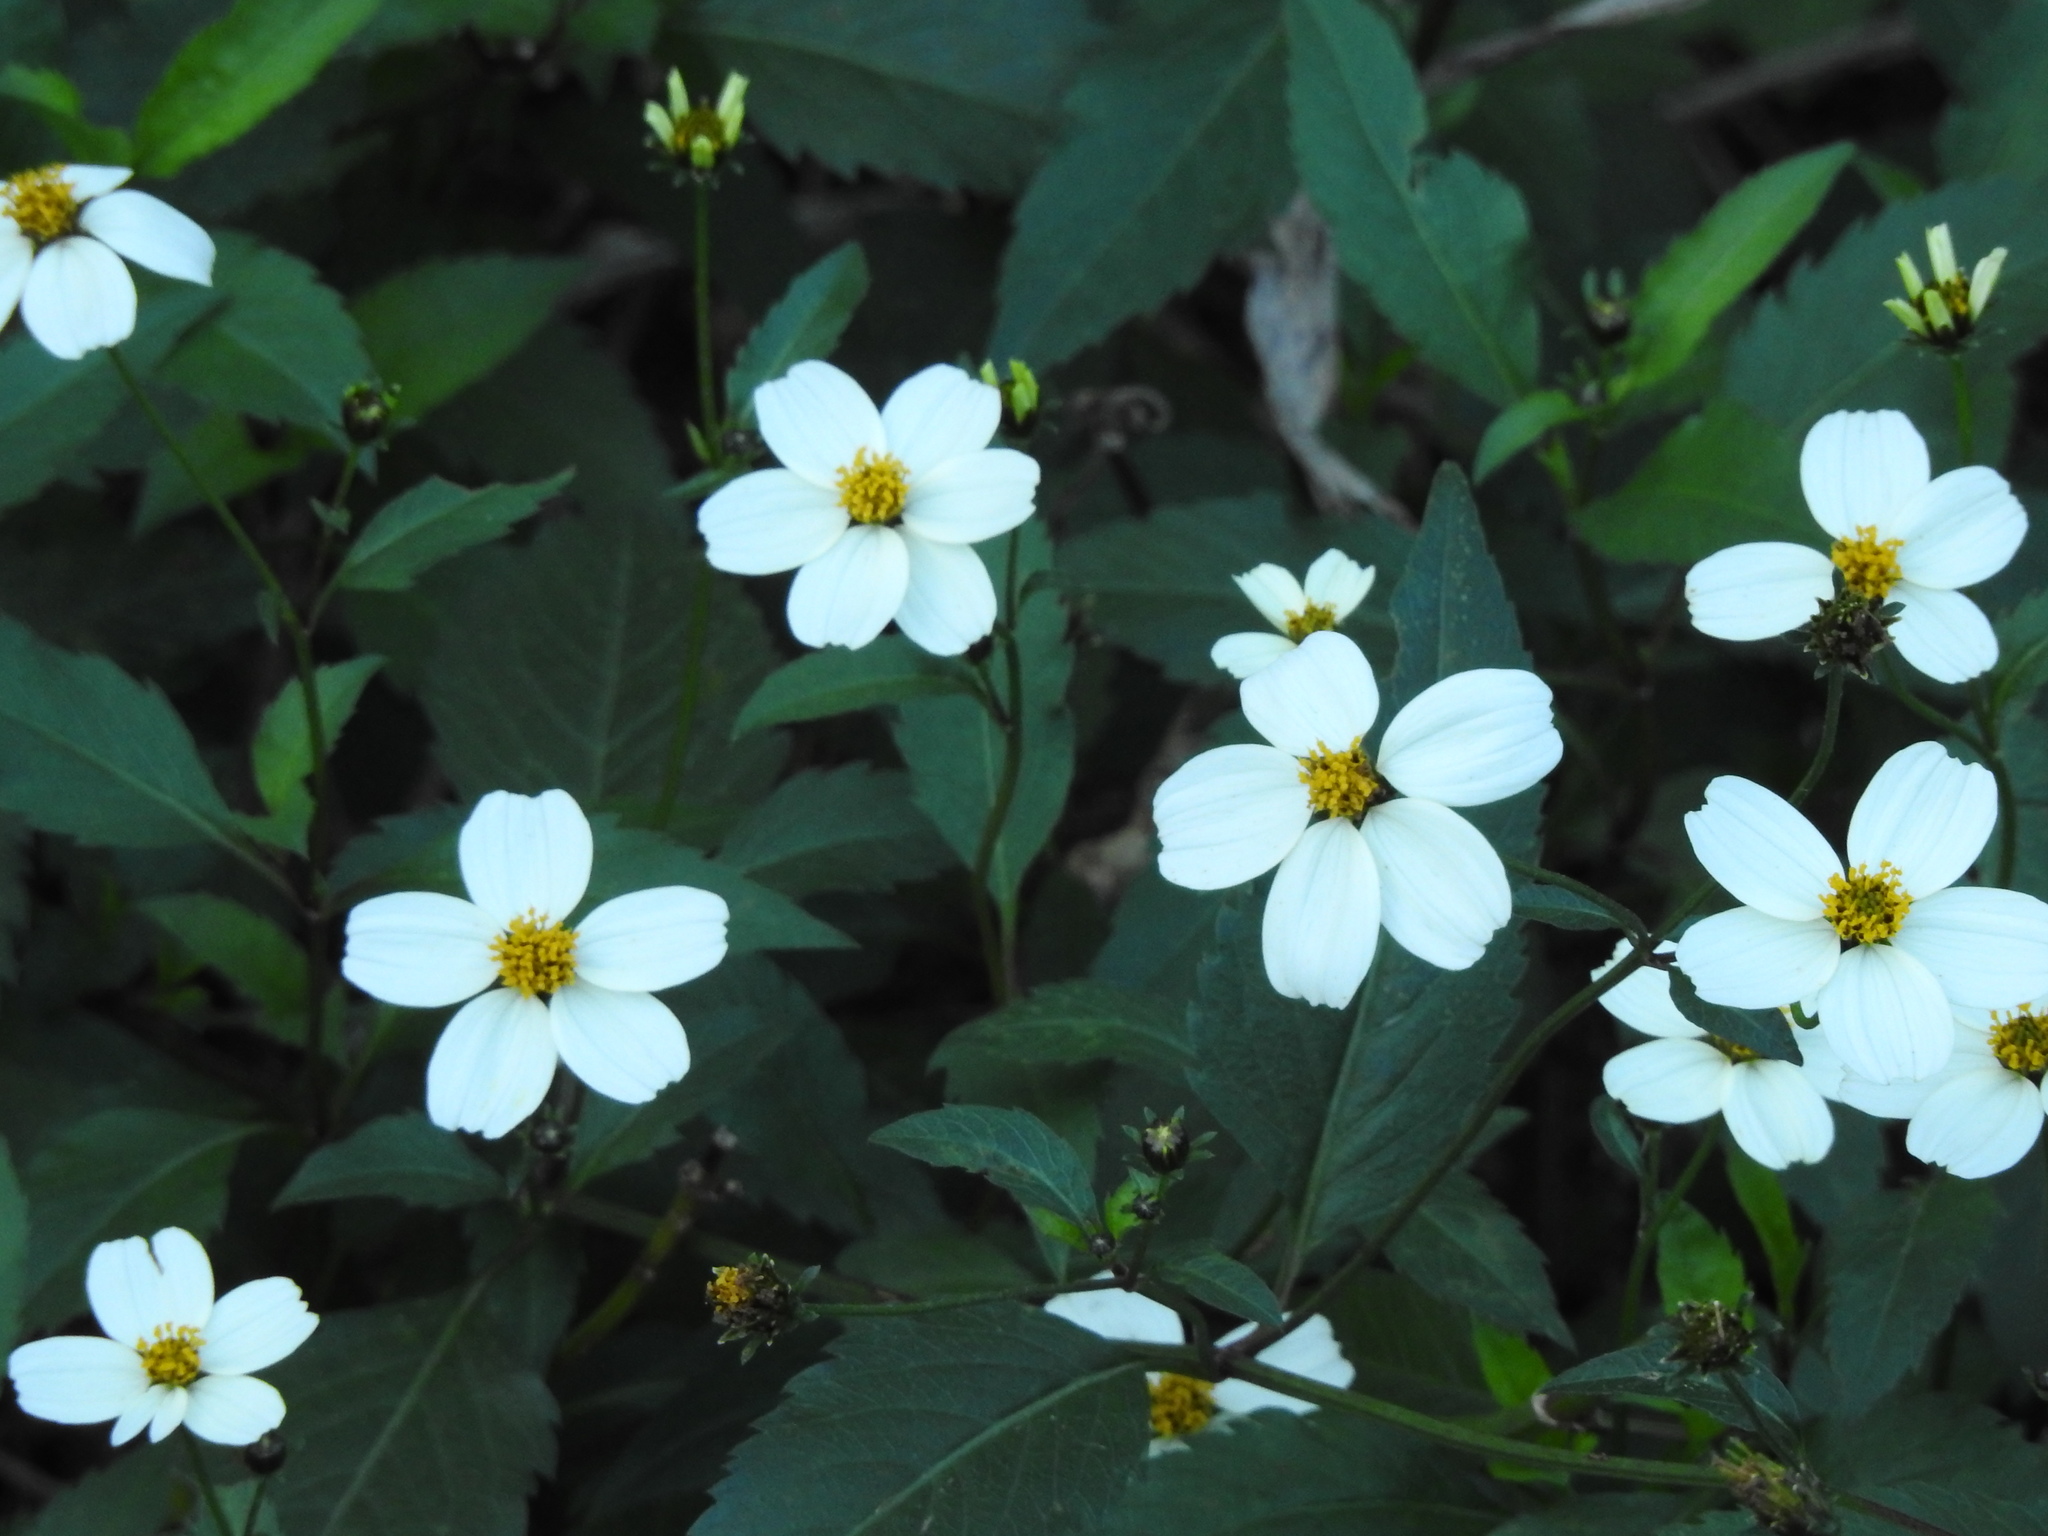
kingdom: Plantae
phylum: Tracheophyta
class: Magnoliopsida
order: Asterales
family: Asteraceae
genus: Bidens
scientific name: Bidens pilosa
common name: Black-jack
